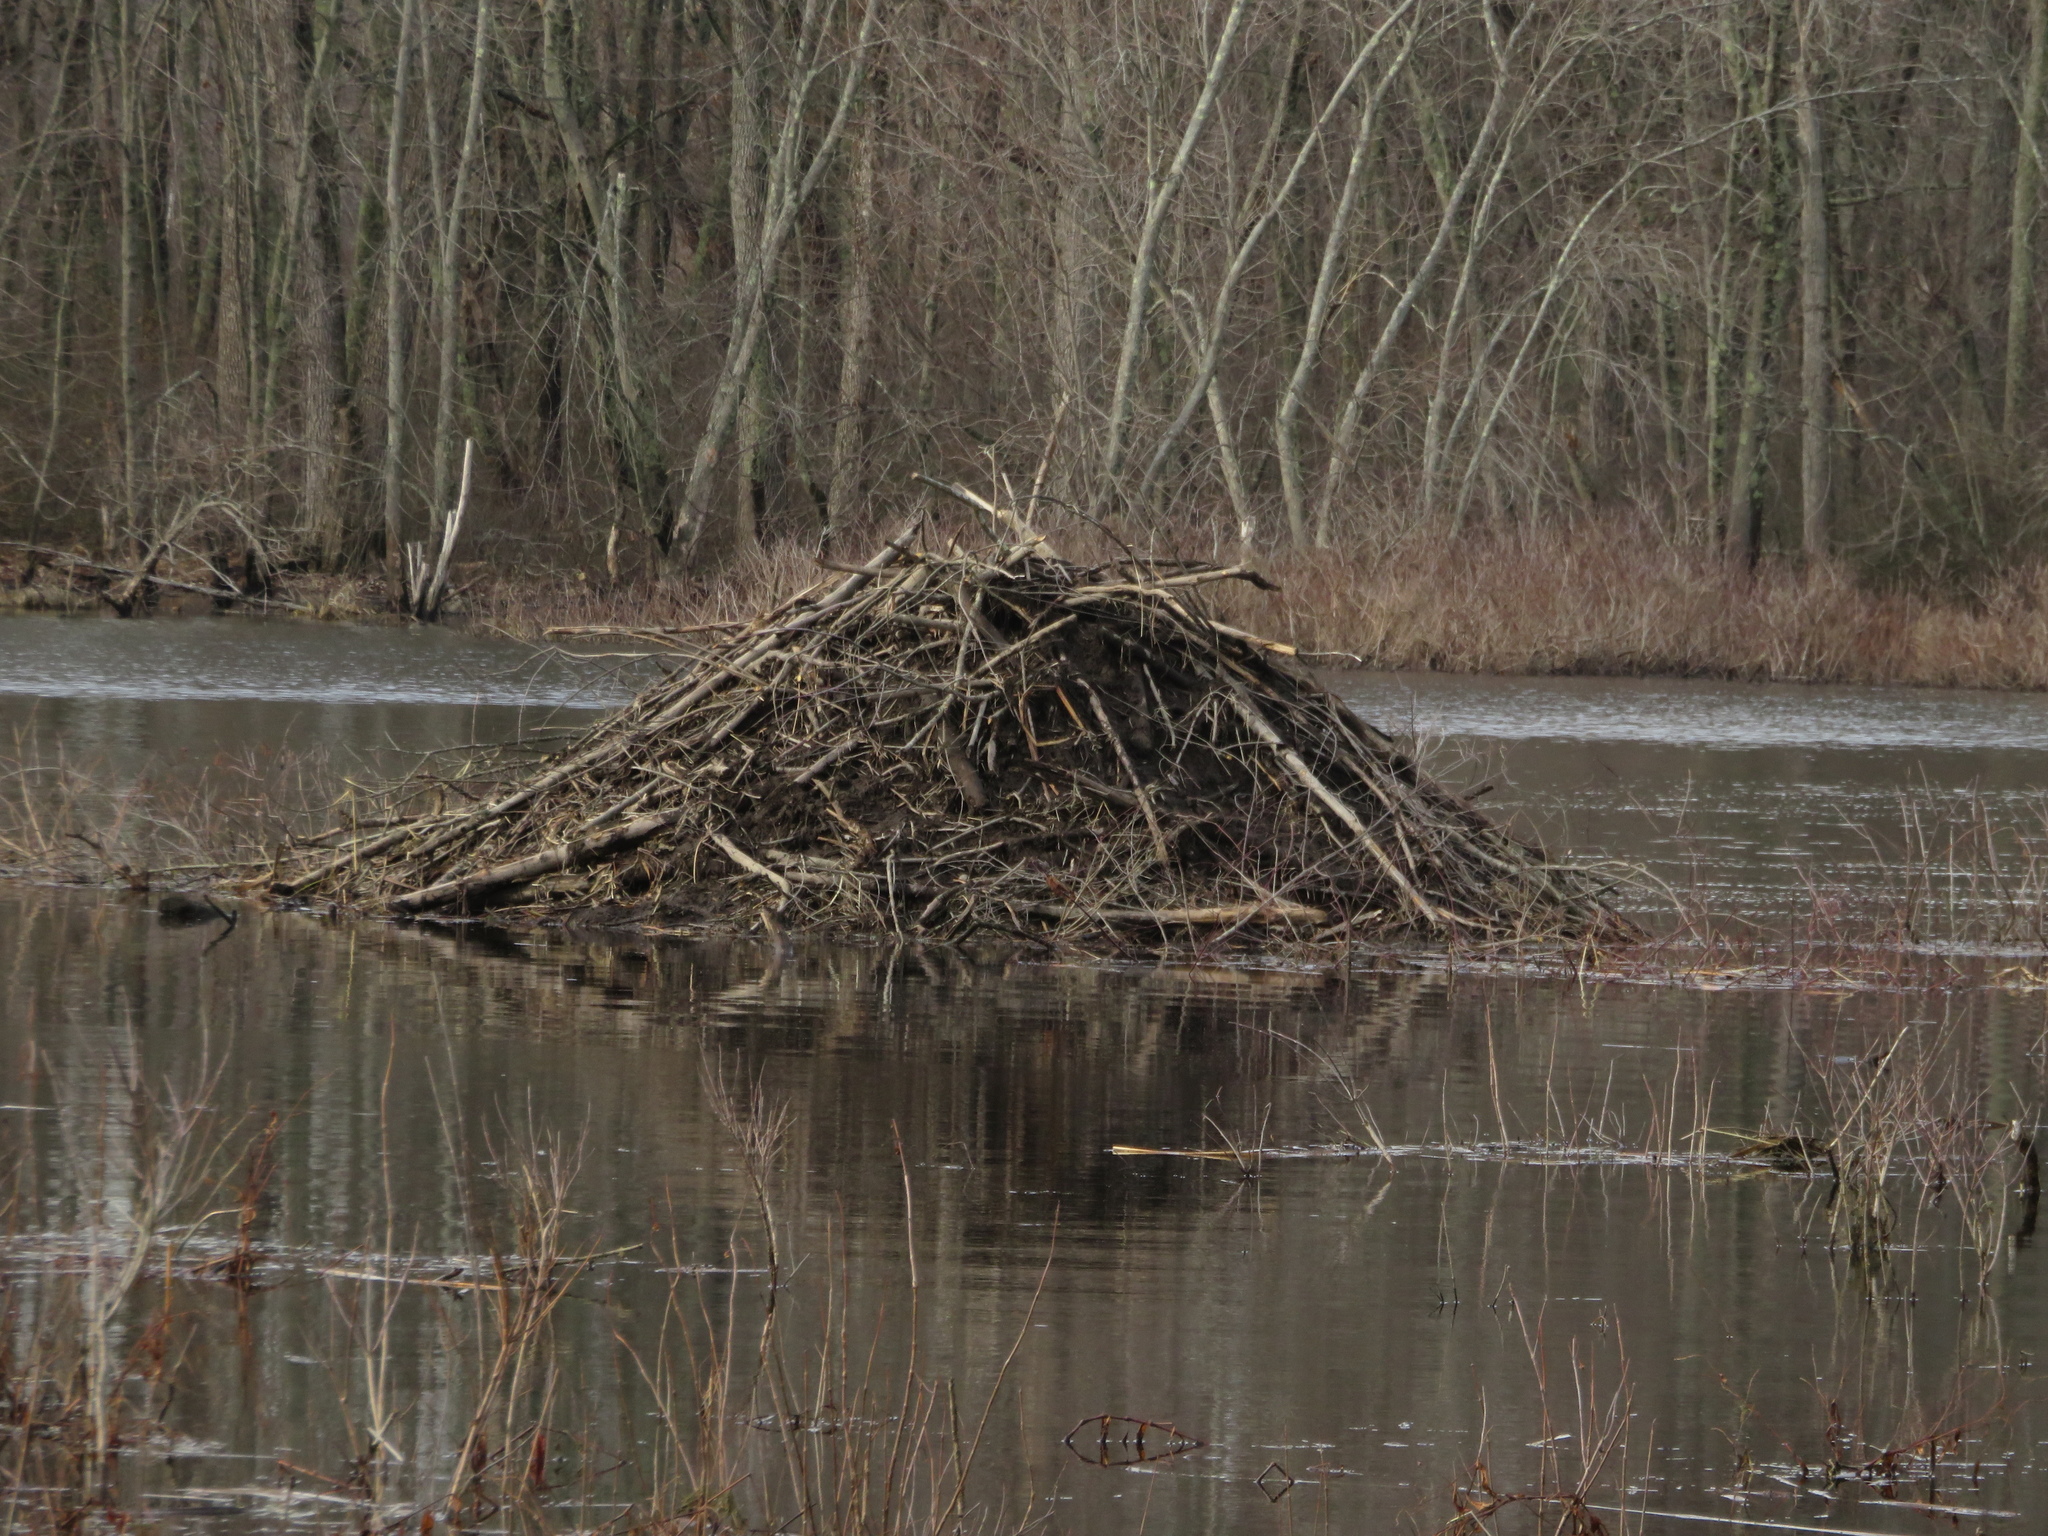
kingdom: Animalia
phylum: Chordata
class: Mammalia
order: Rodentia
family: Castoridae
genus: Castor
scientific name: Castor canadensis
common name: American beaver
